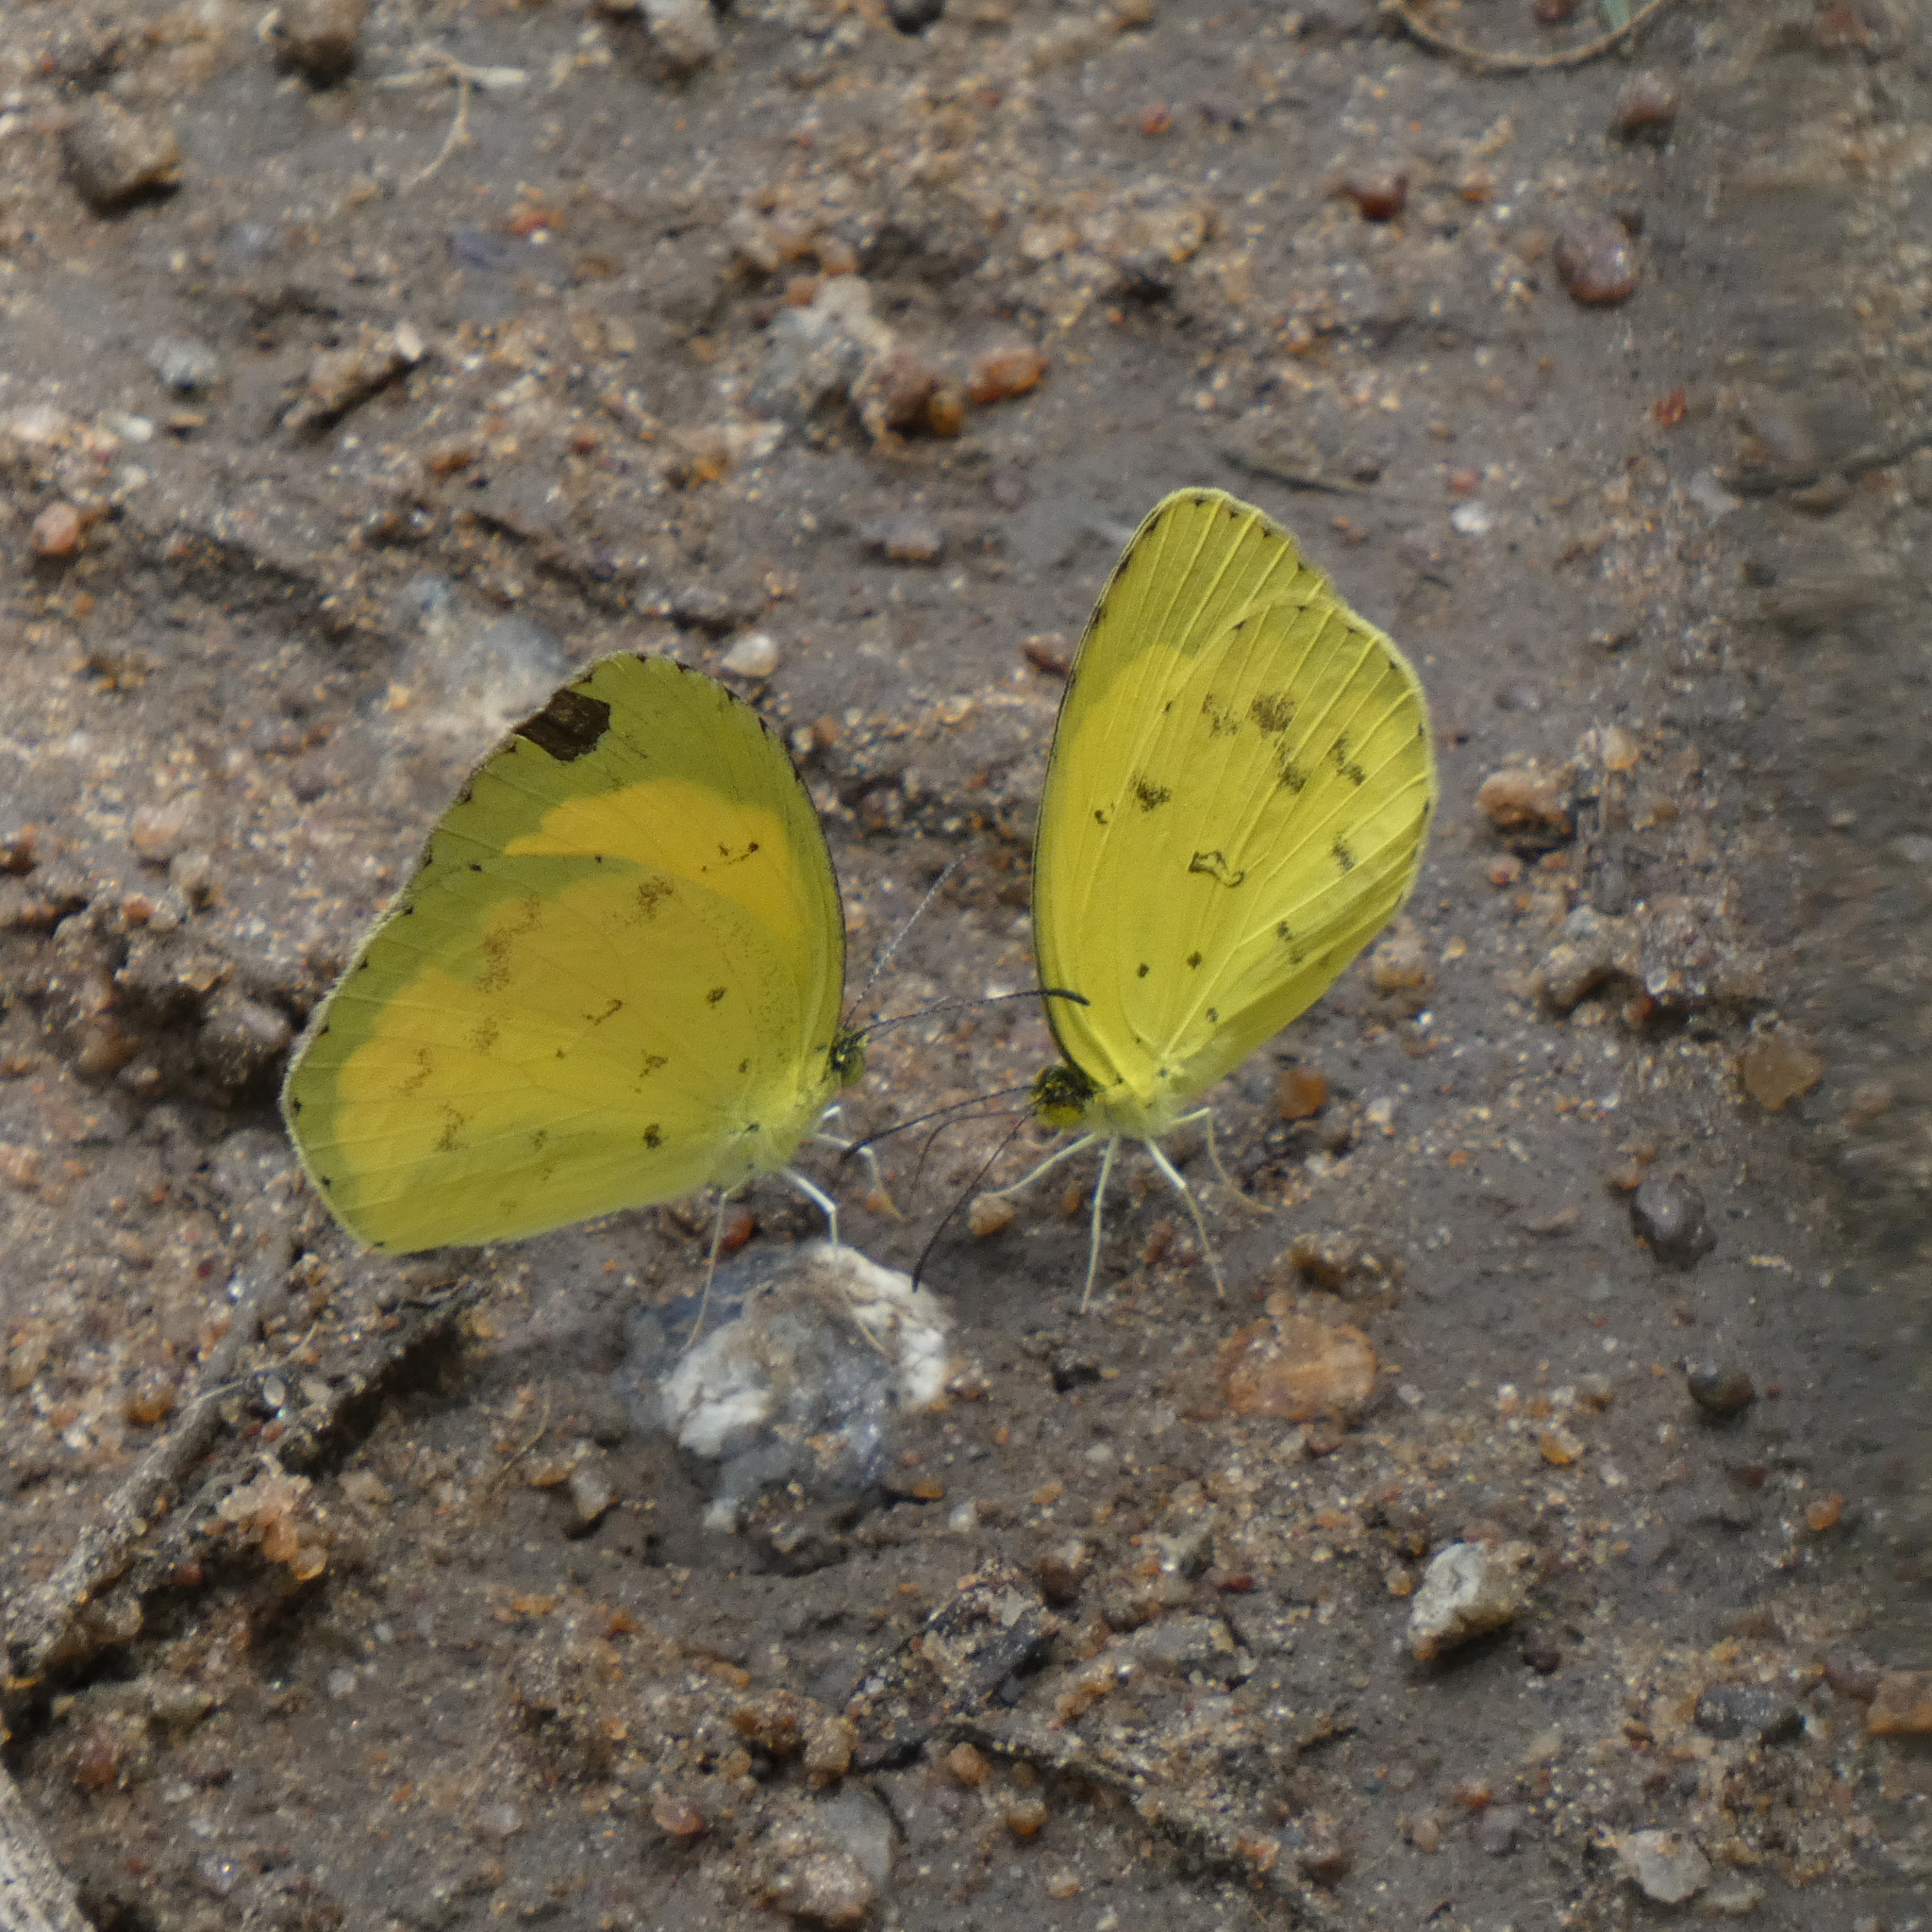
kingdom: Animalia
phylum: Arthropoda
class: Insecta
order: Lepidoptera
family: Pieridae
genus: Eurema
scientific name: Eurema desjardinsii
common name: Angled grass yellow
